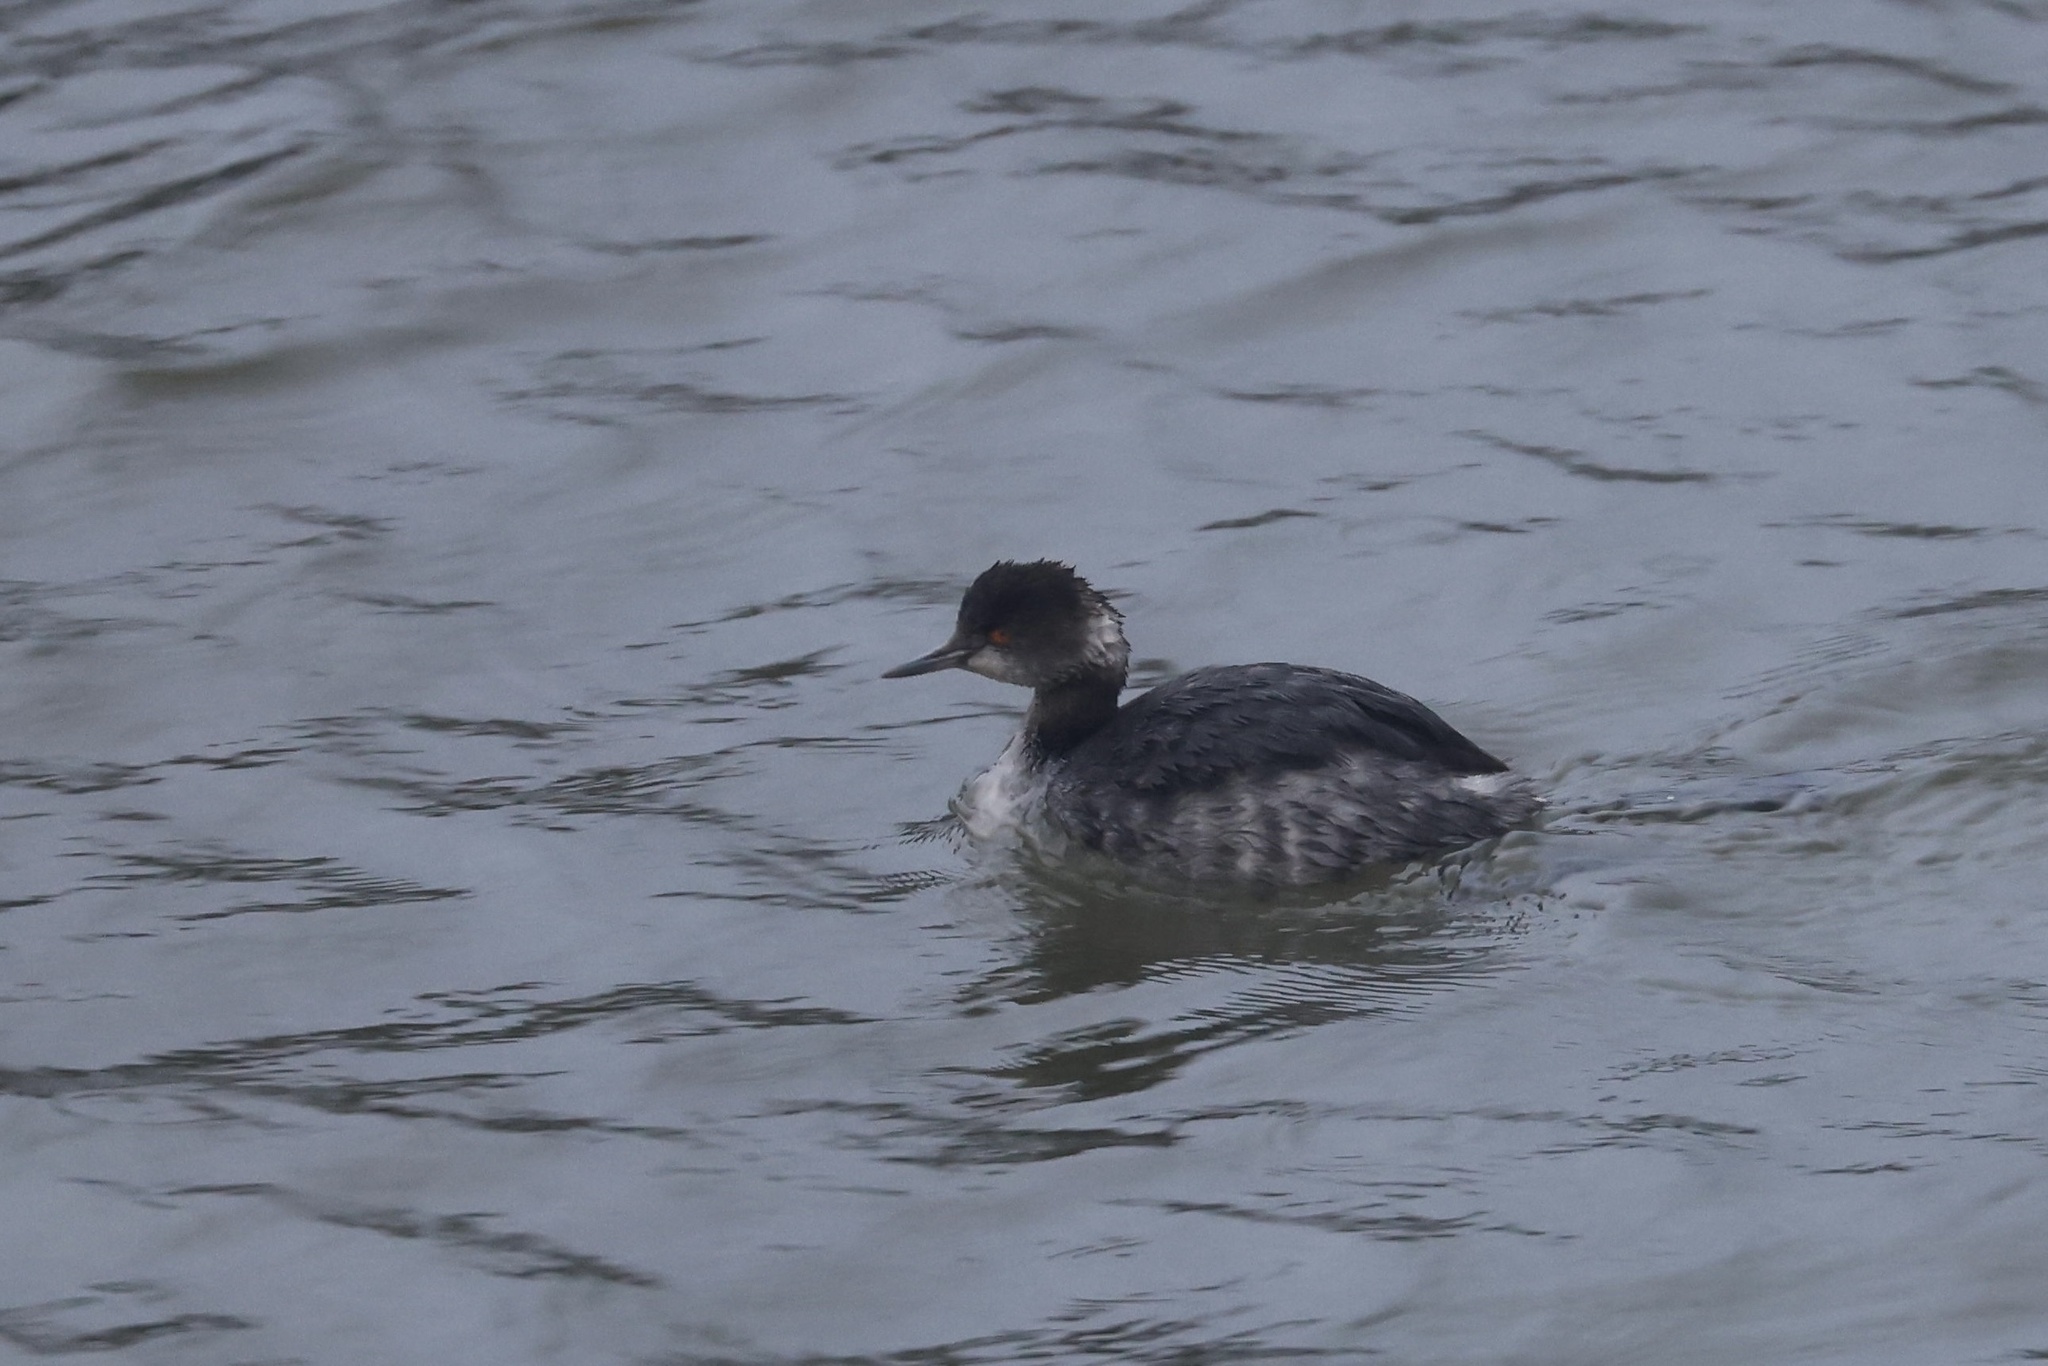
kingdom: Animalia
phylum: Chordata
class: Aves
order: Podicipediformes
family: Podicipedidae
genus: Podiceps
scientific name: Podiceps nigricollis
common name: Black-necked grebe
